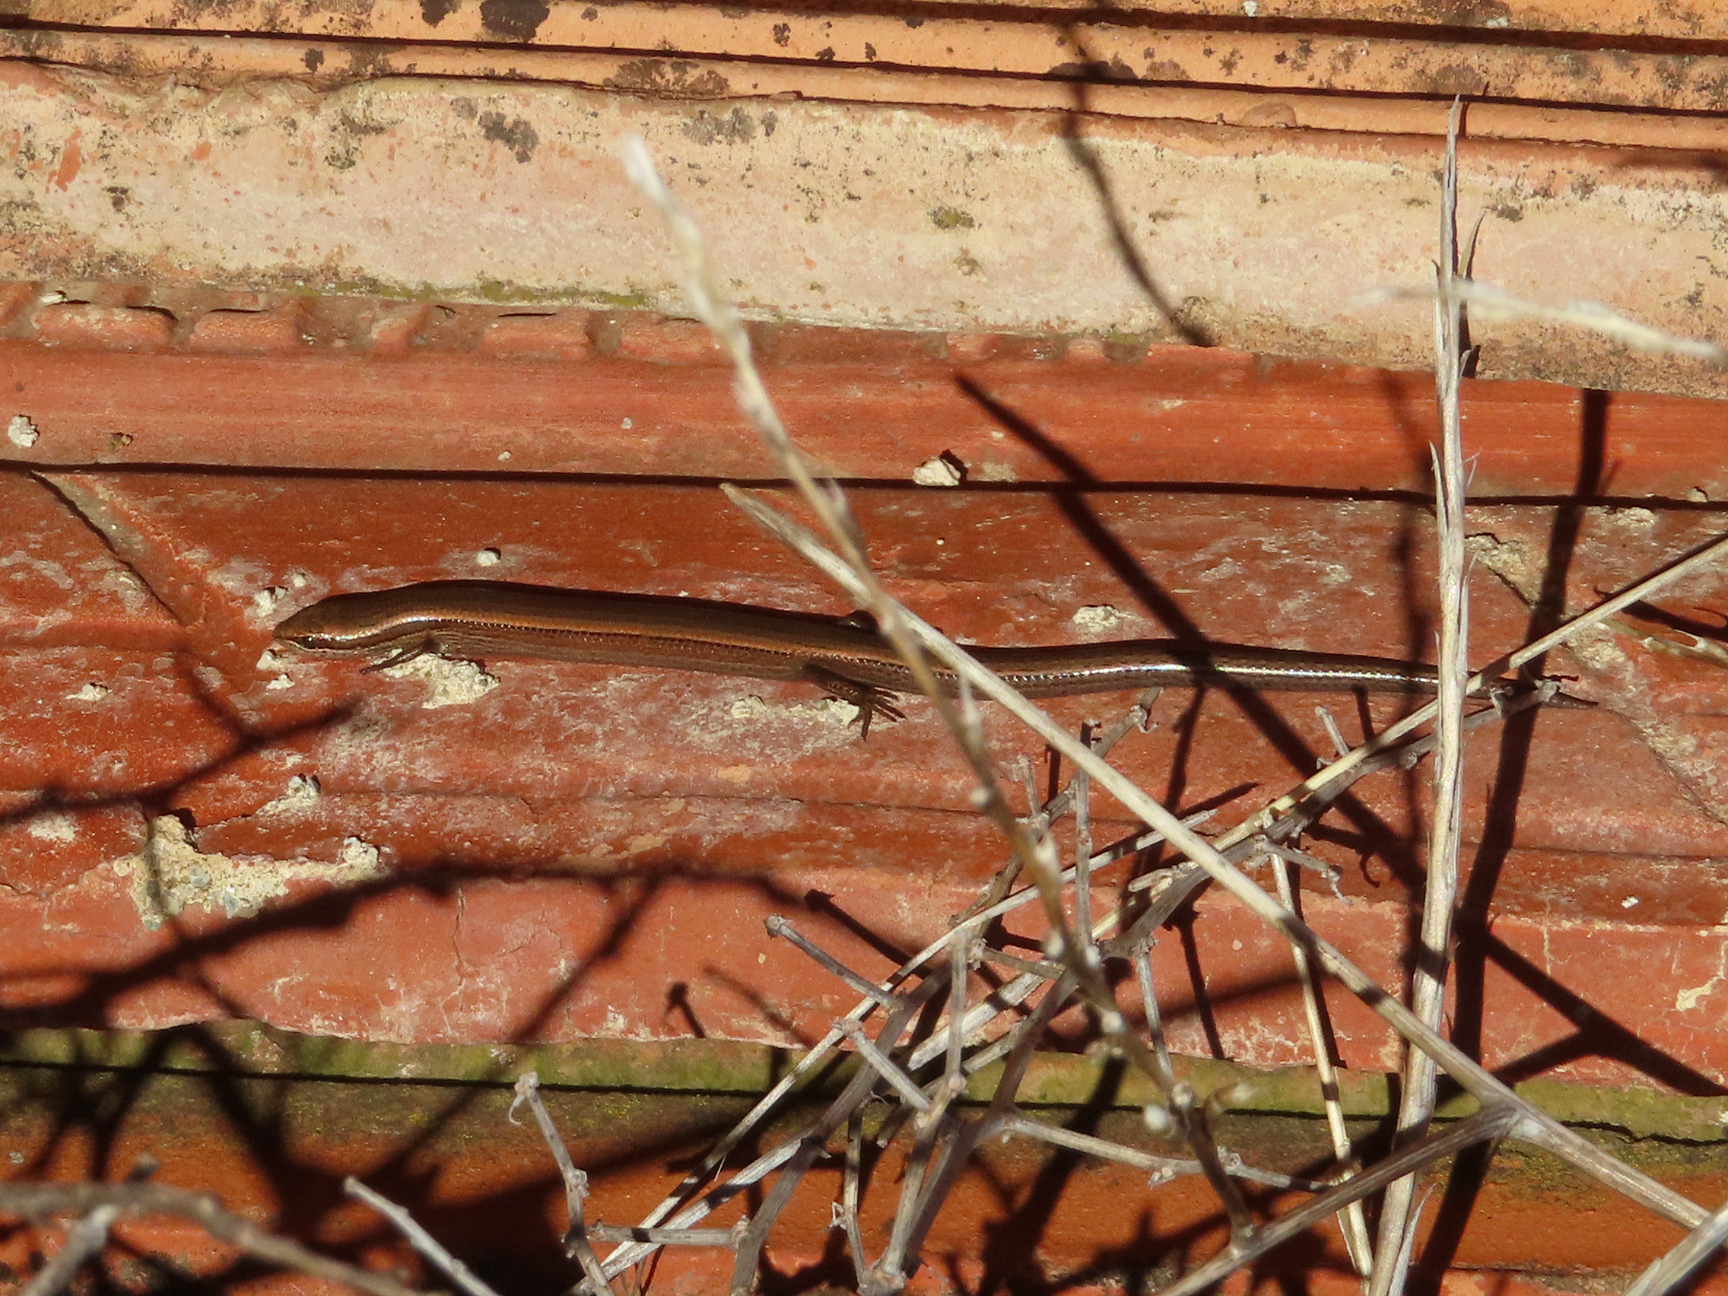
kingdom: Animalia
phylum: Chordata
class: Squamata
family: Scincidae
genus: Ablepharus
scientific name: Ablepharus kitaibelii
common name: Juniper skink
